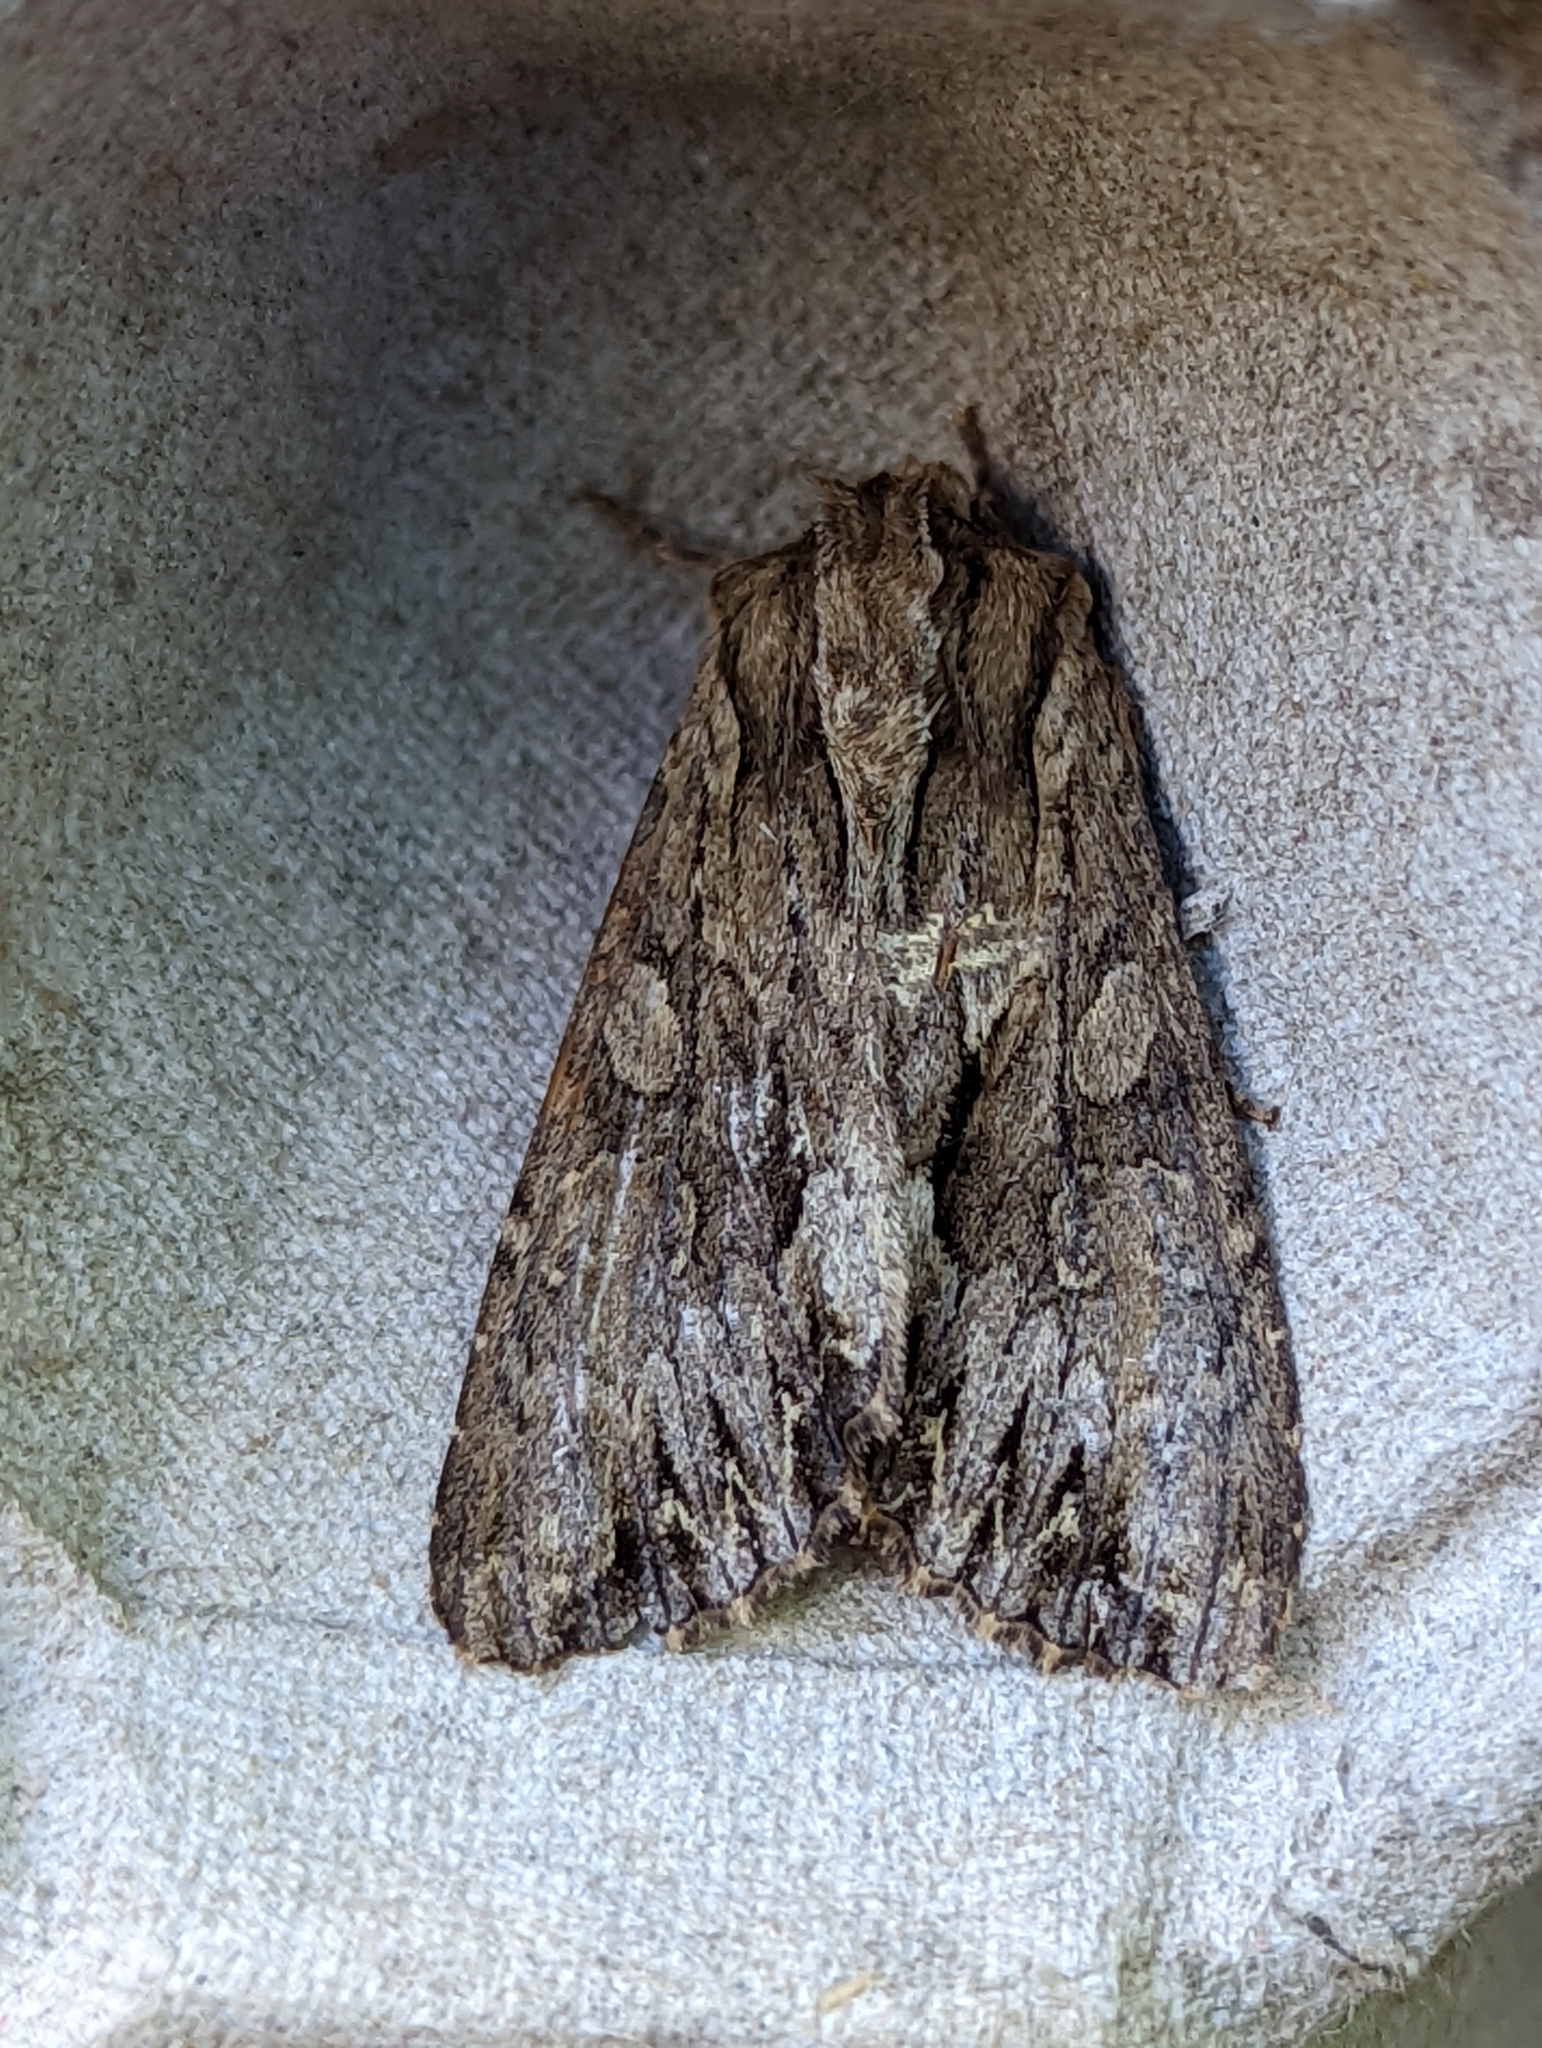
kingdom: Animalia
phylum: Arthropoda
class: Insecta
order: Lepidoptera
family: Noctuidae
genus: Apamea
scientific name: Apamea monoglypha
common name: Dark arches
